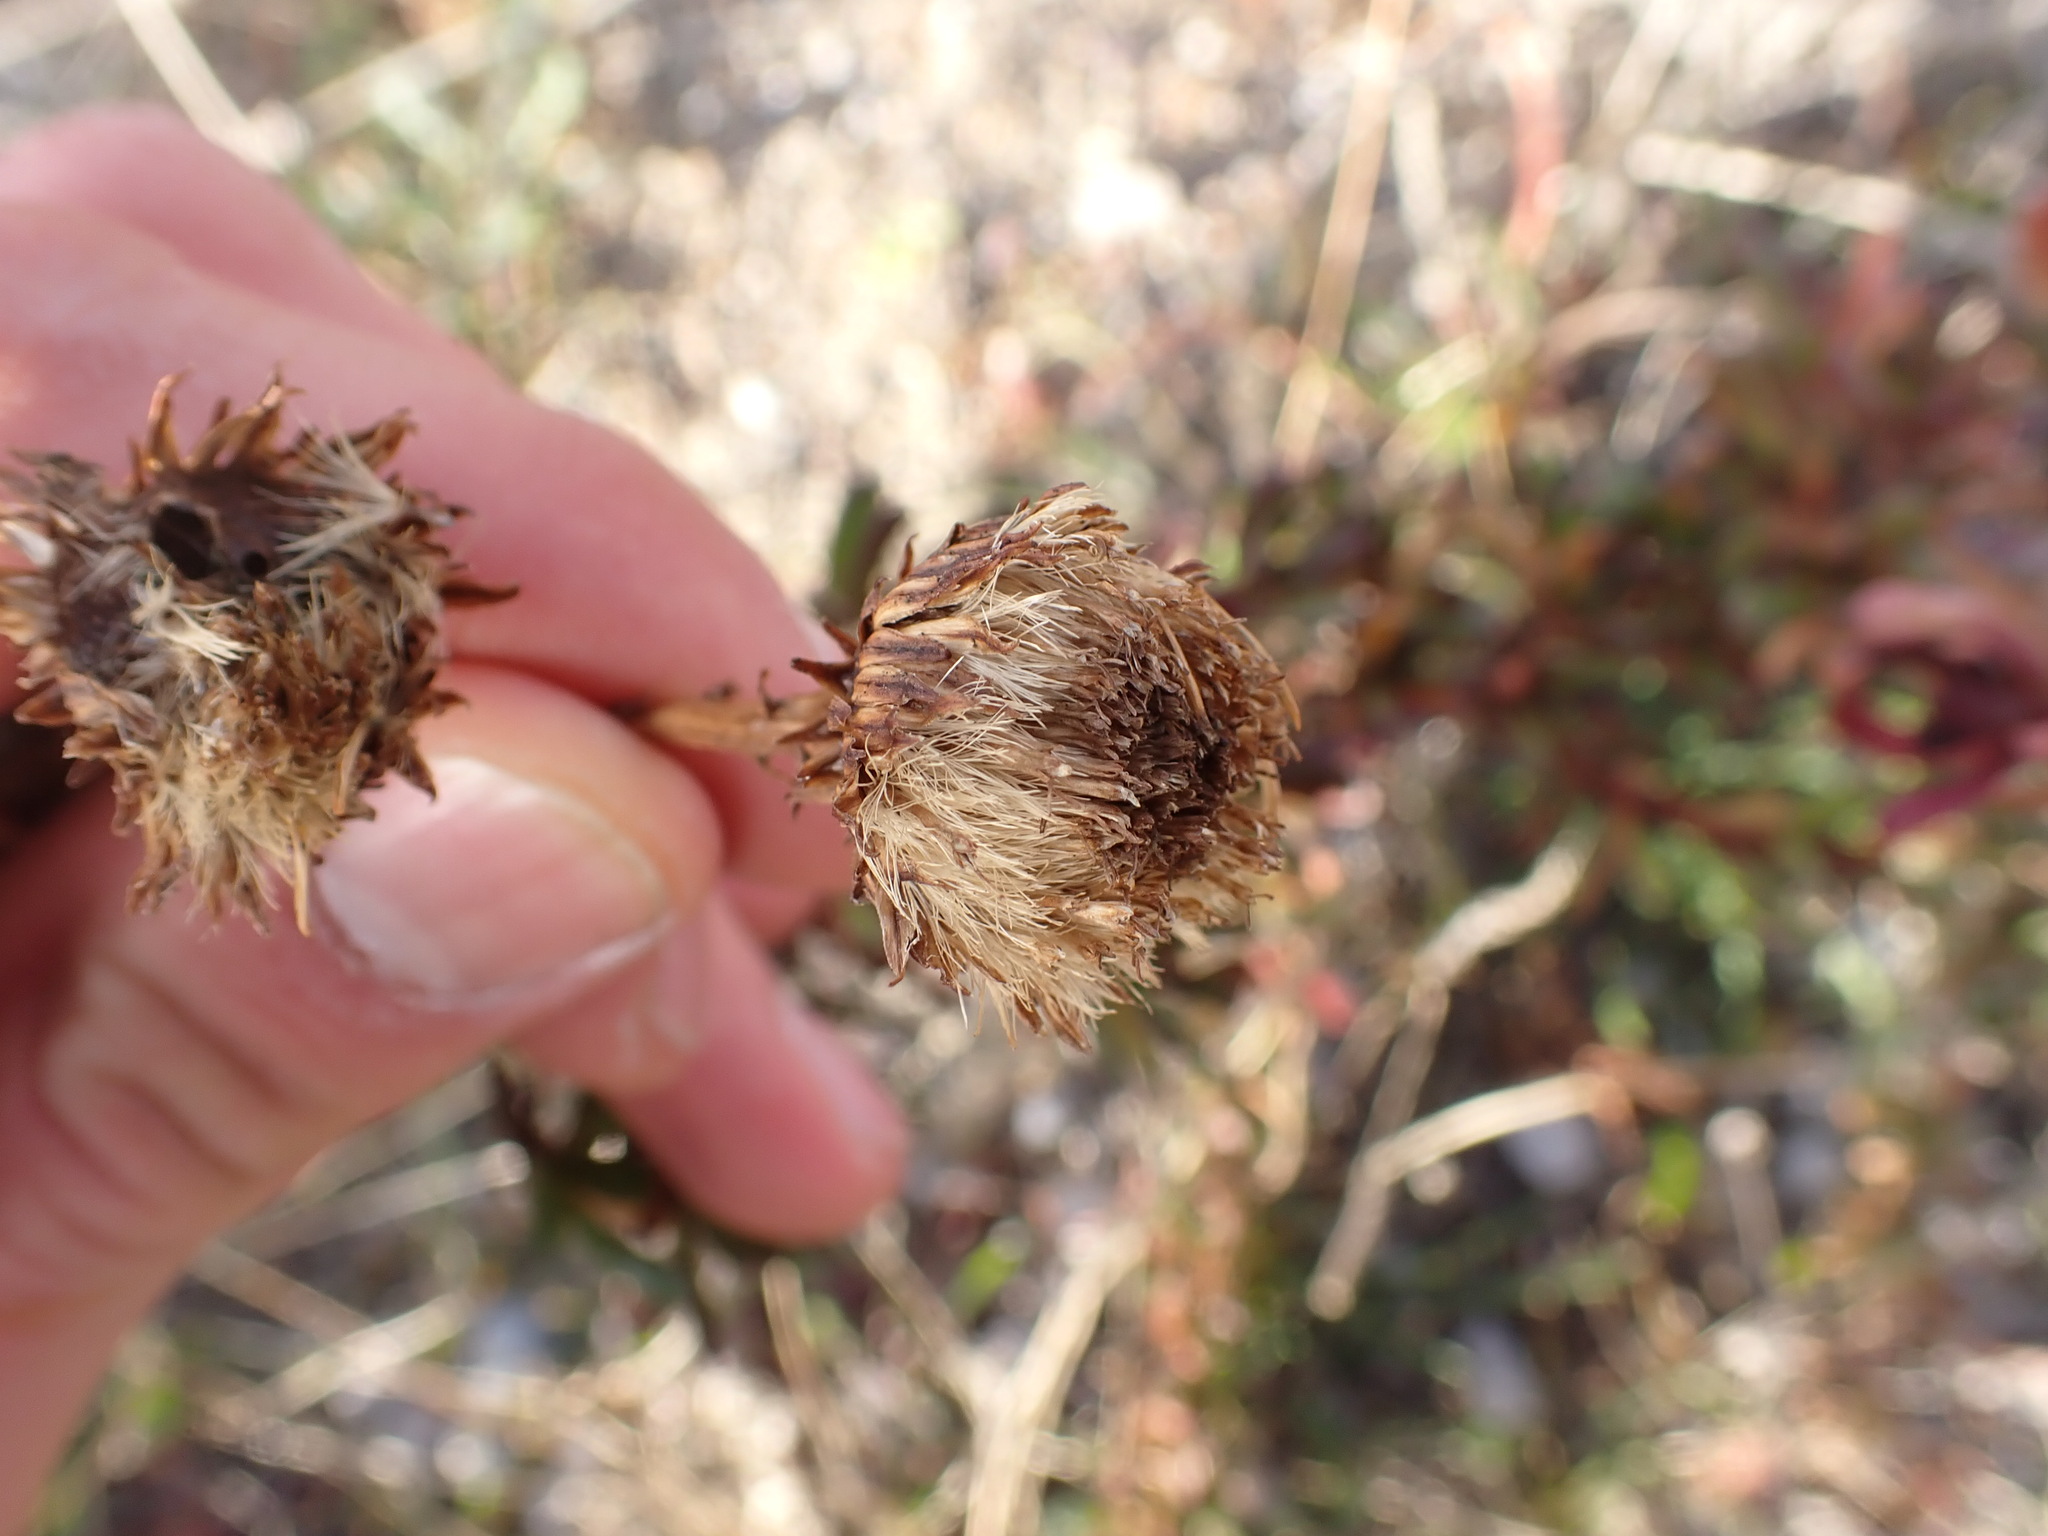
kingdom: Plantae
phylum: Tracheophyta
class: Magnoliopsida
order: Asterales
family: Asteraceae
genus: Limbarda
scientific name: Limbarda crithmoides
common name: Golden samphire
